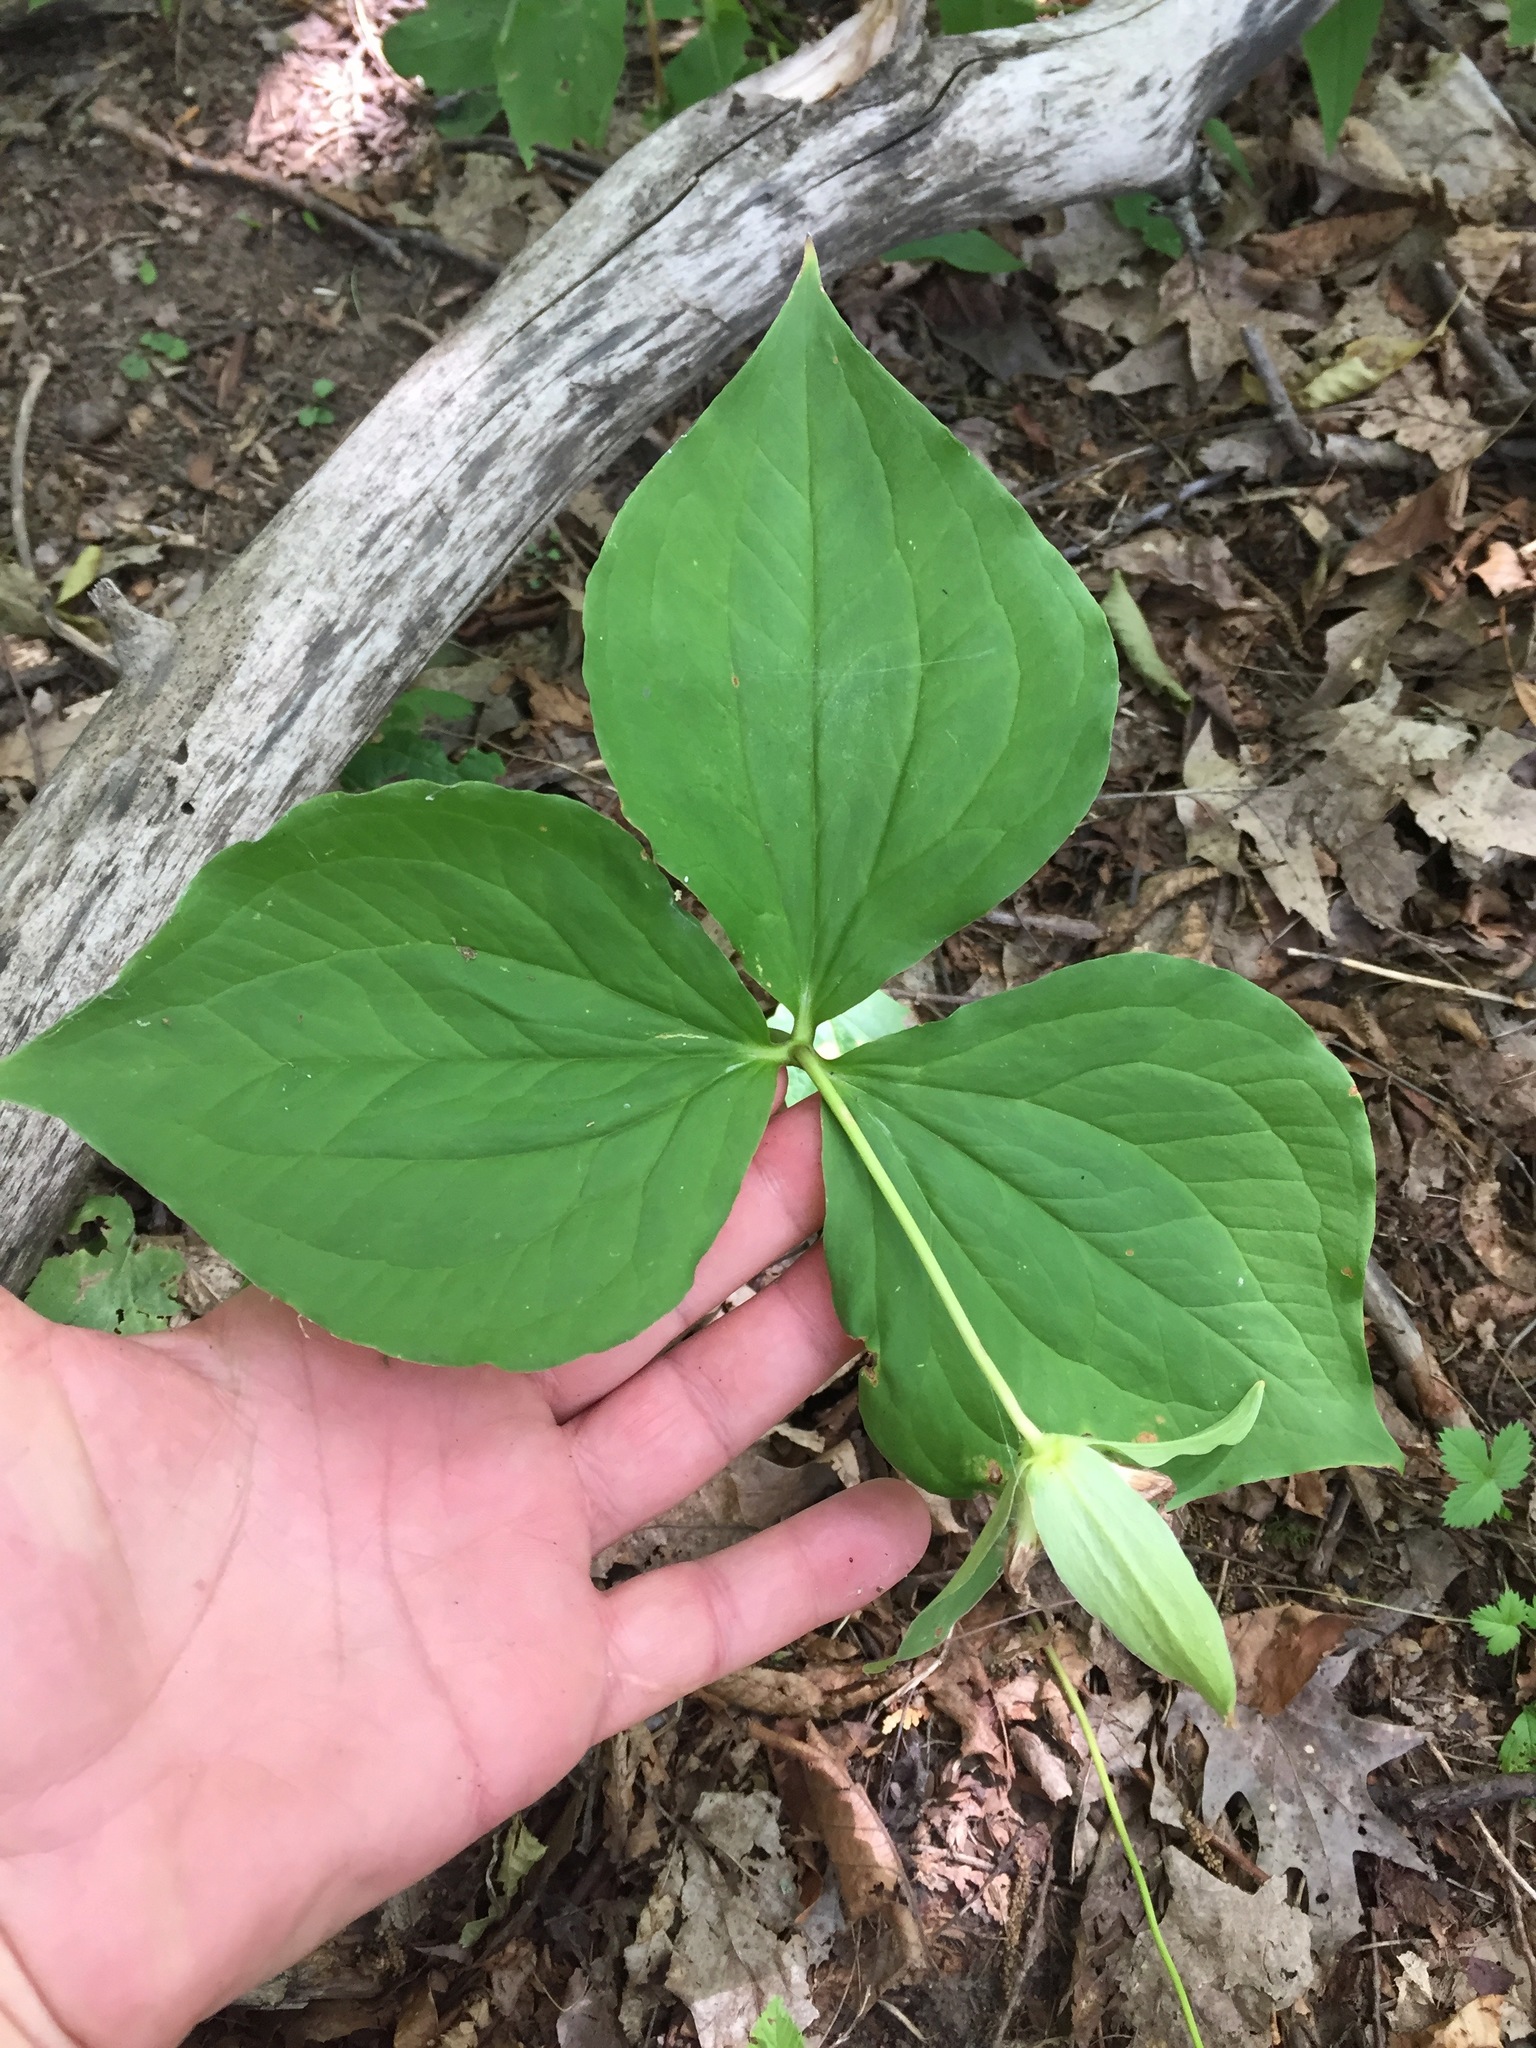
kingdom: Plantae
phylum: Tracheophyta
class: Liliopsida
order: Liliales
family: Melanthiaceae
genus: Trillium
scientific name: Trillium grandiflorum
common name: Great white trillium
